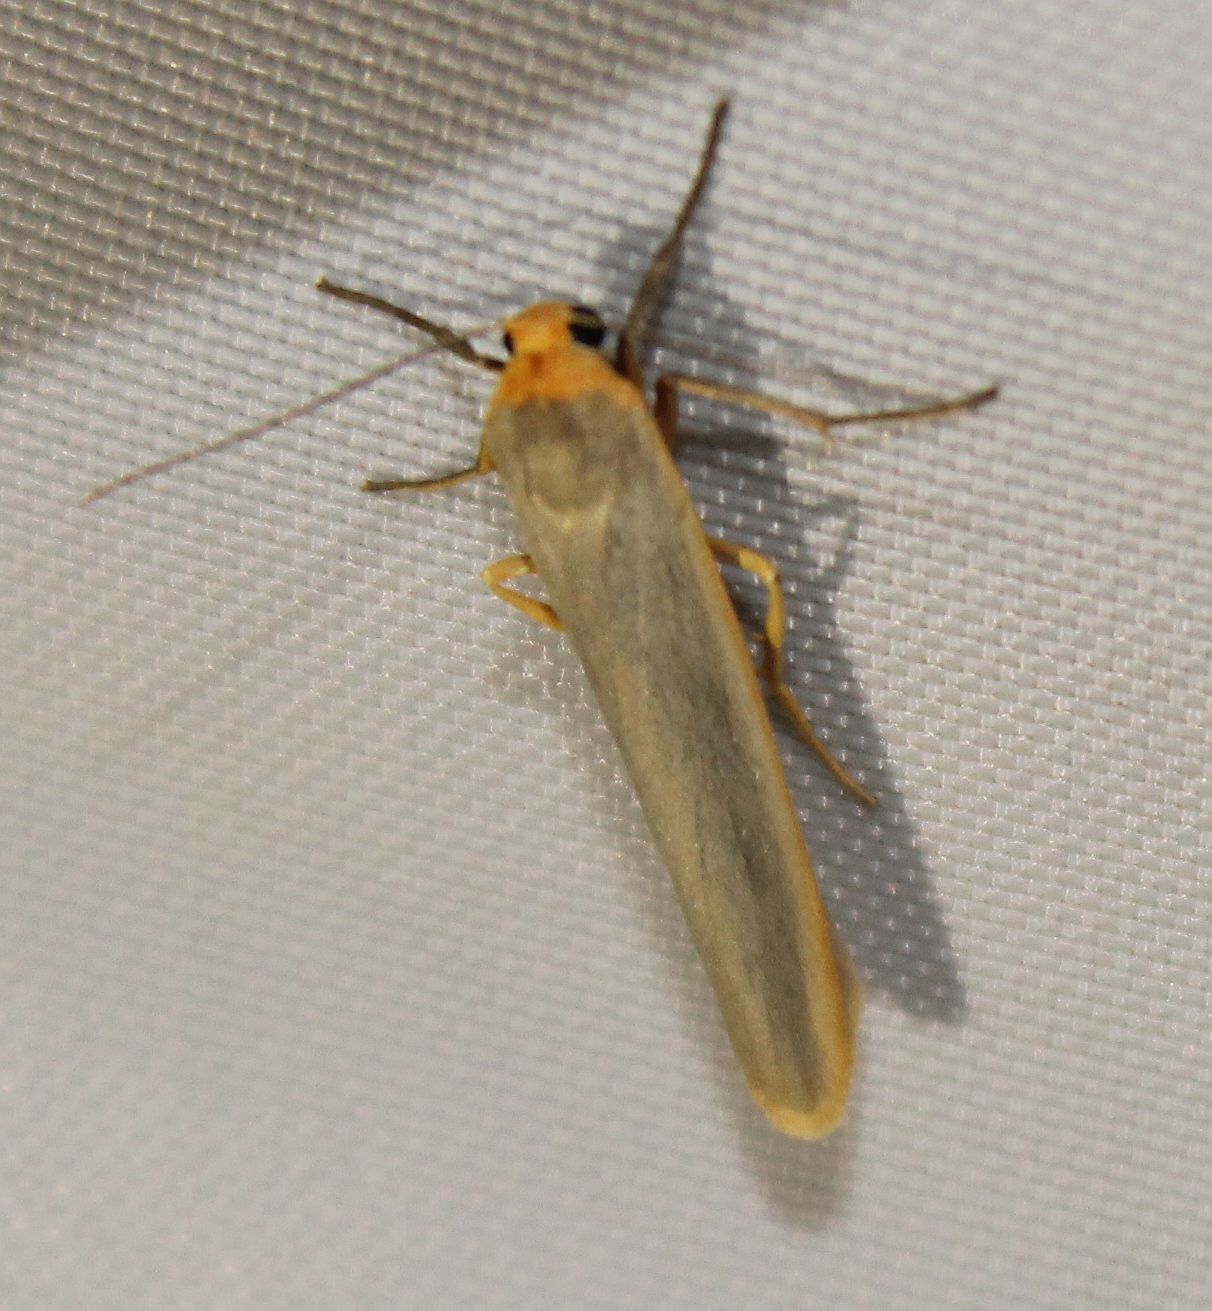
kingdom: Animalia
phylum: Arthropoda
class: Insecta
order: Lepidoptera
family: Erebidae
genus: Manulea
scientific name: Manulea complana
